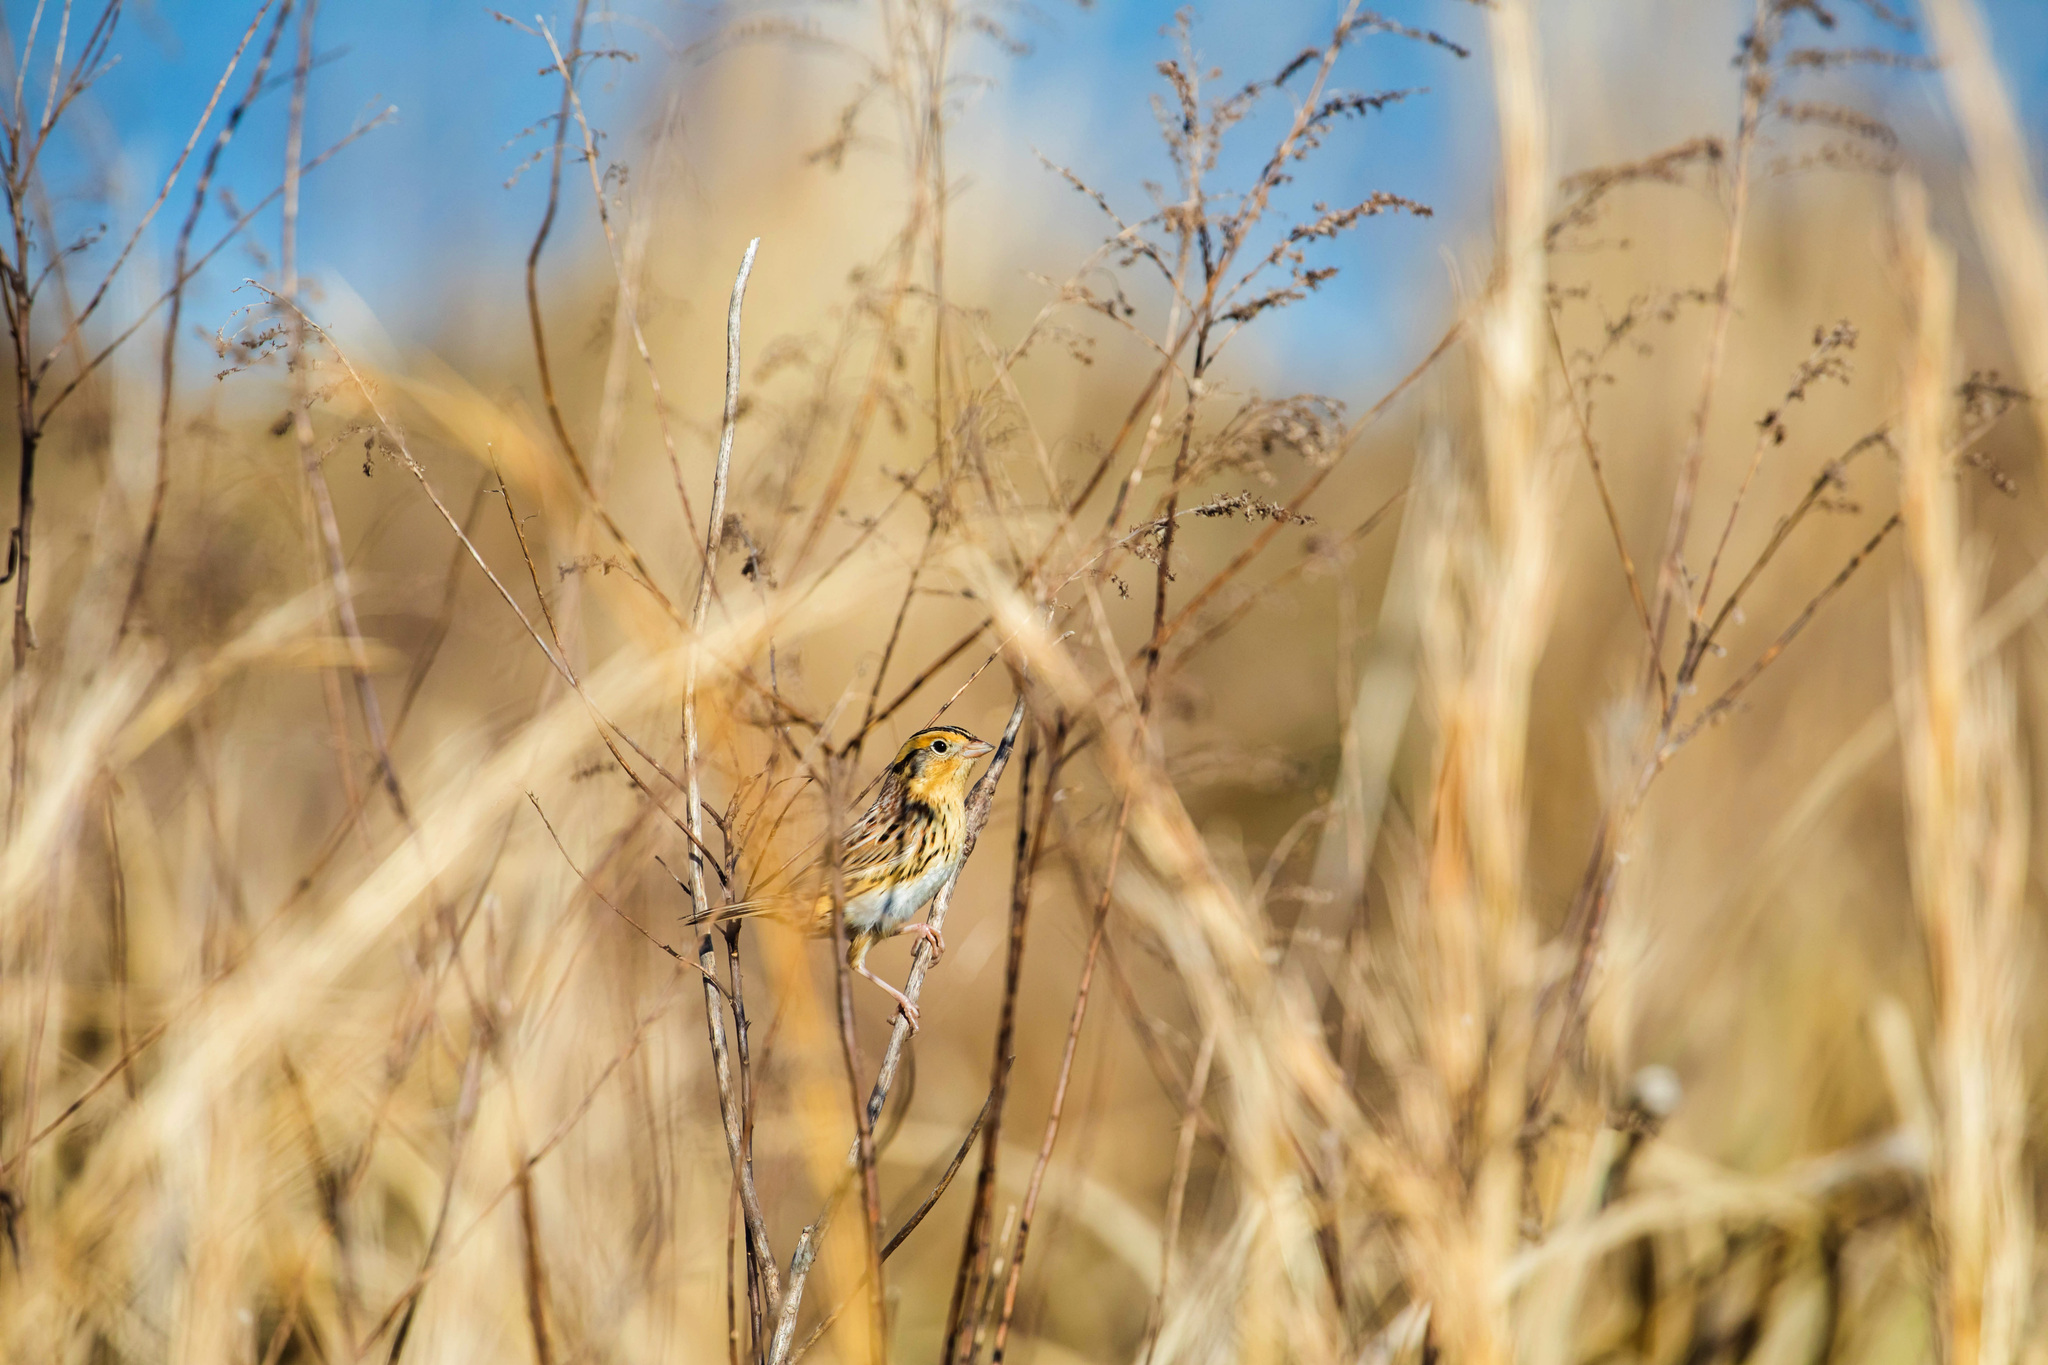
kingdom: Animalia
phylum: Chordata
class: Aves
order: Passeriformes
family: Passerellidae
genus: Ammospiza
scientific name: Ammospiza leconteii
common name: Le conte's sparrow
